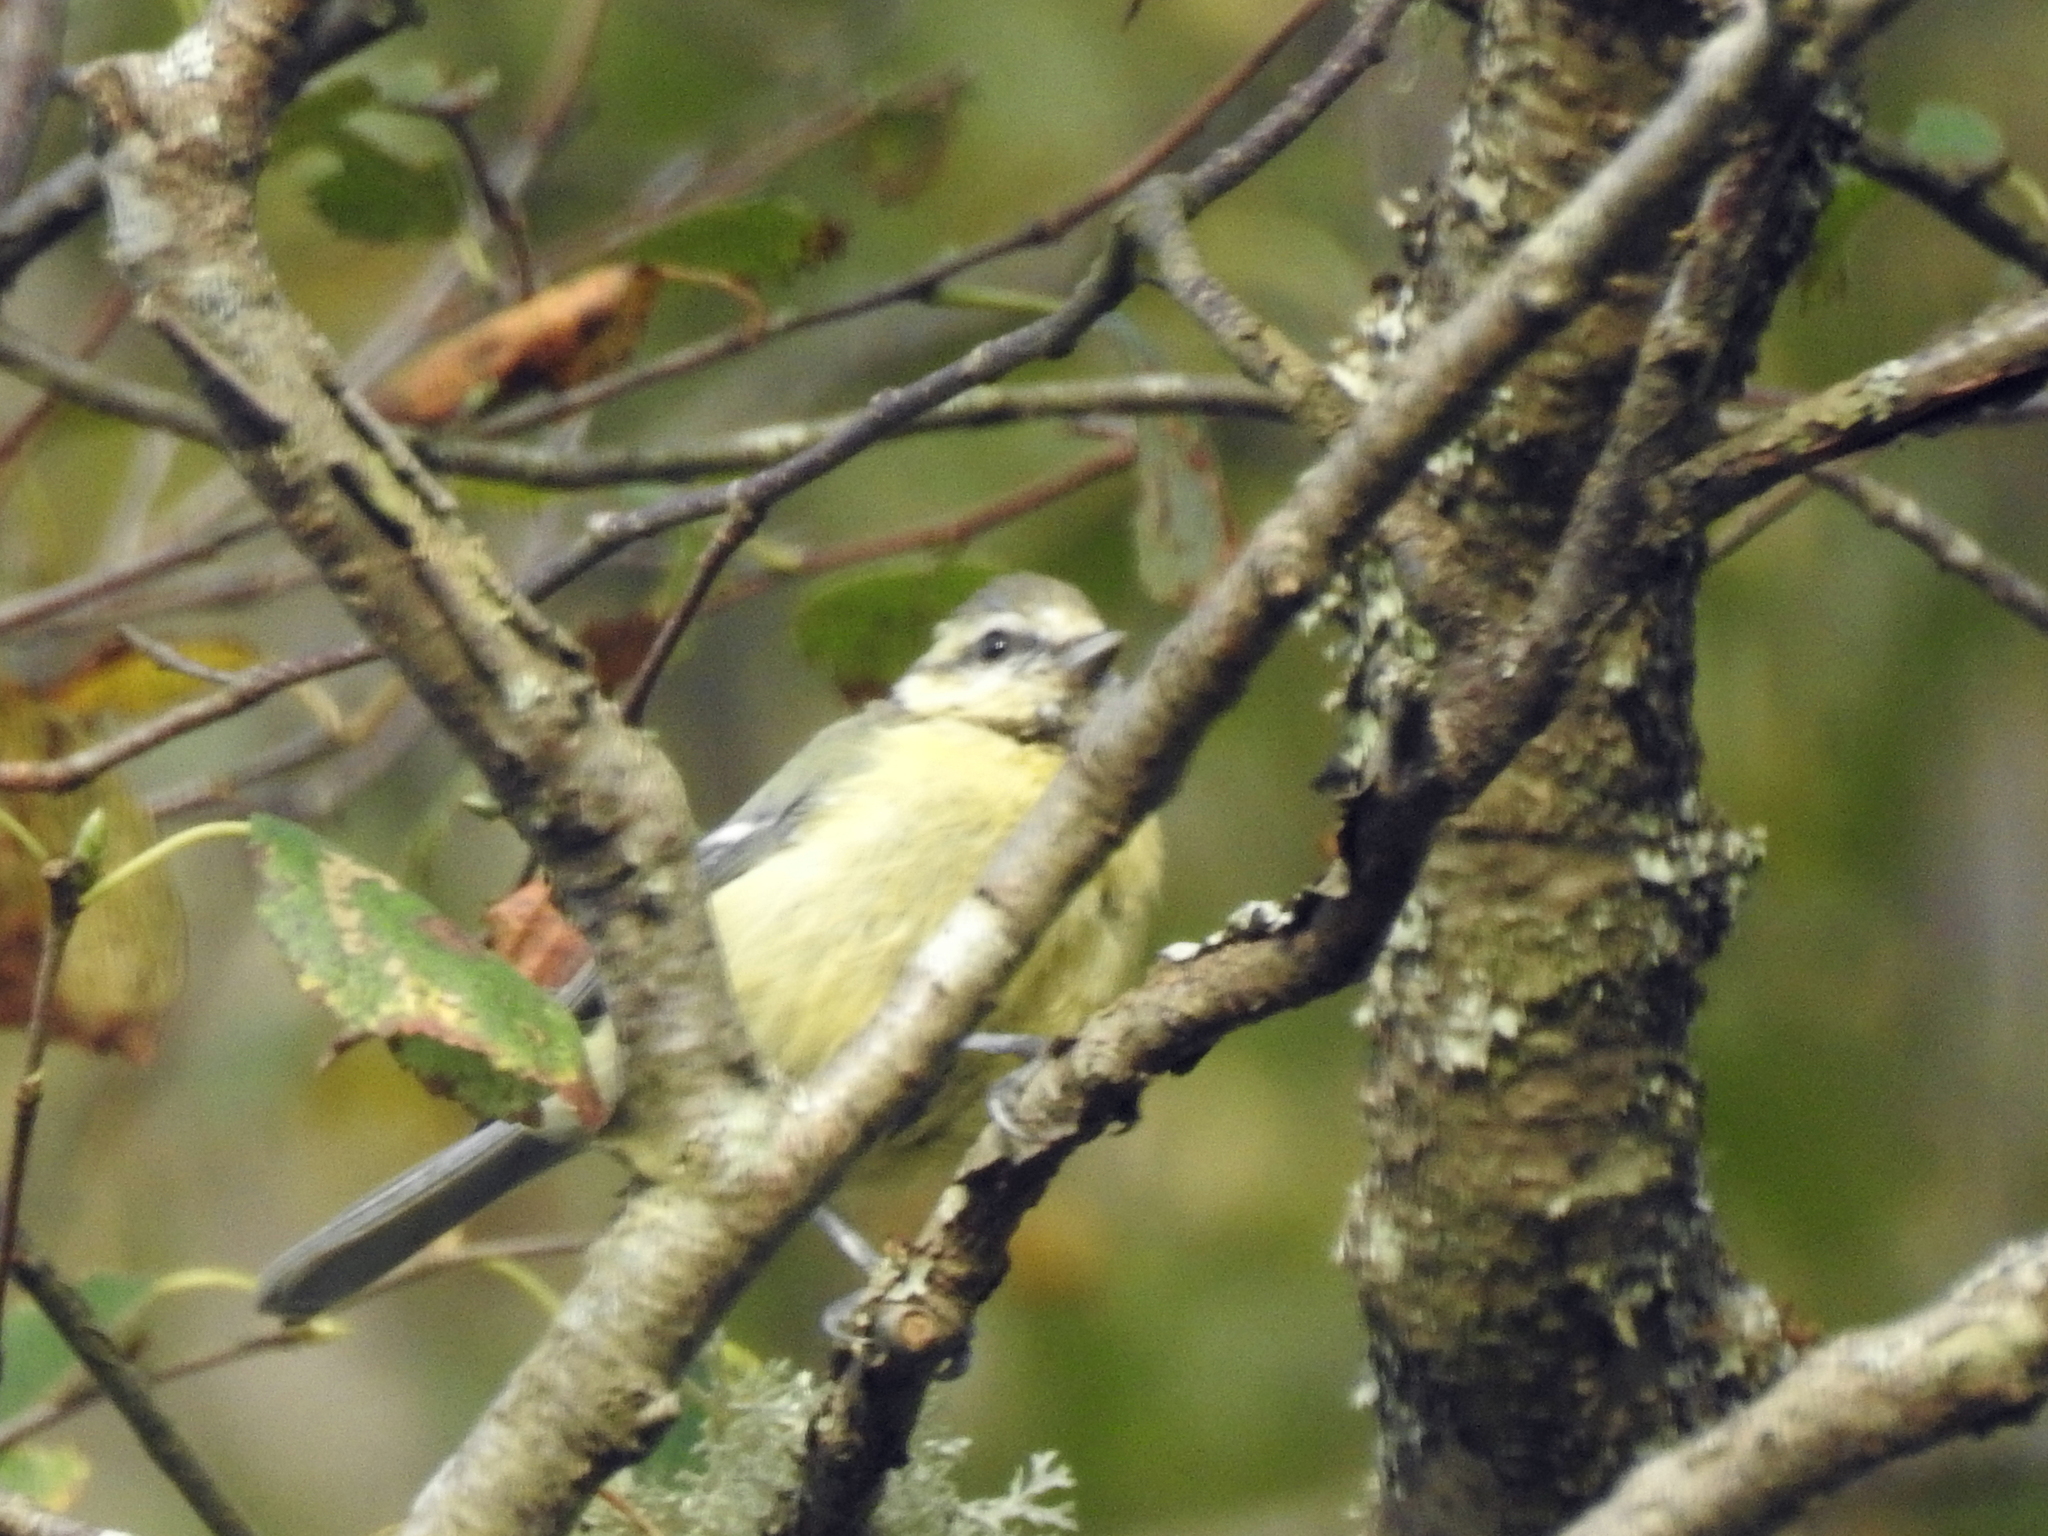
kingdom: Animalia
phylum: Chordata
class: Aves
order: Passeriformes
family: Paridae
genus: Cyanistes
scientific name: Cyanistes caeruleus
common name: Eurasian blue tit
